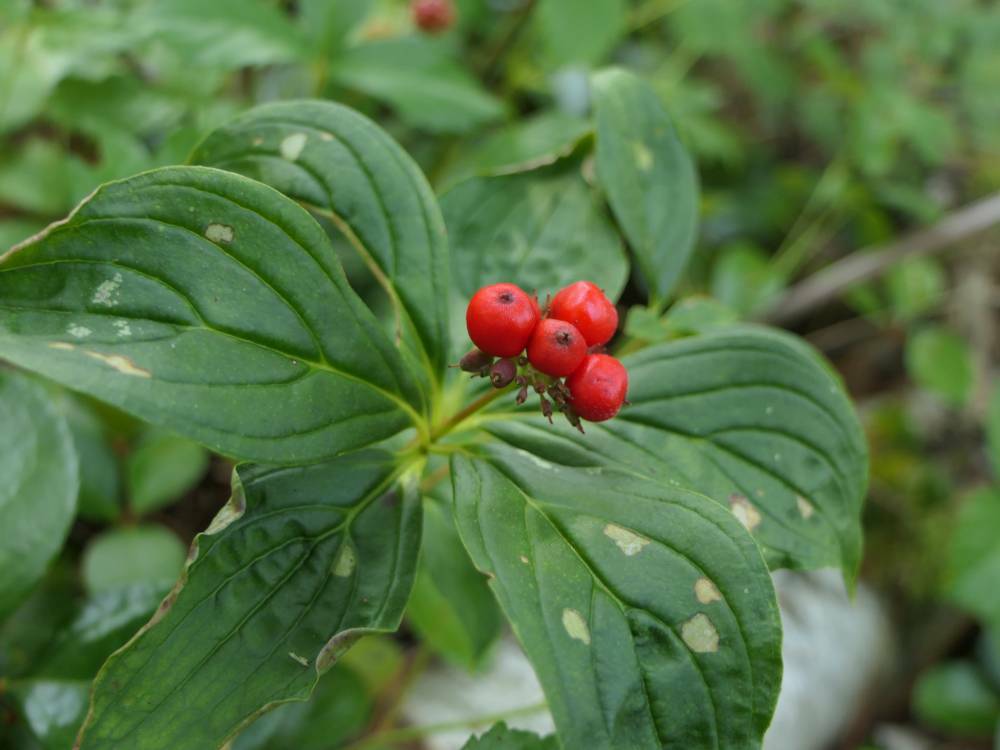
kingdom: Plantae
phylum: Tracheophyta
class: Magnoliopsida
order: Cornales
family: Cornaceae
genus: Cornus
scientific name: Cornus canadensis
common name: Creeping dogwood
